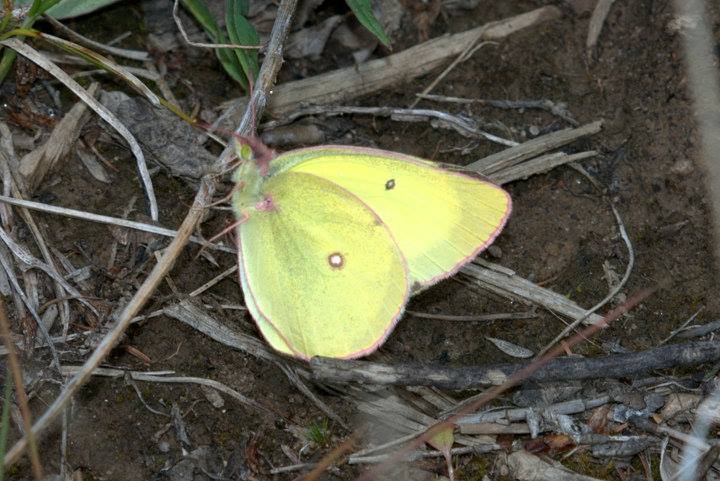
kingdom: Animalia
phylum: Arthropoda
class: Insecta
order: Lepidoptera
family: Pieridae
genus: Colias
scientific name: Colias interior
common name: Pink-edged sulphur
